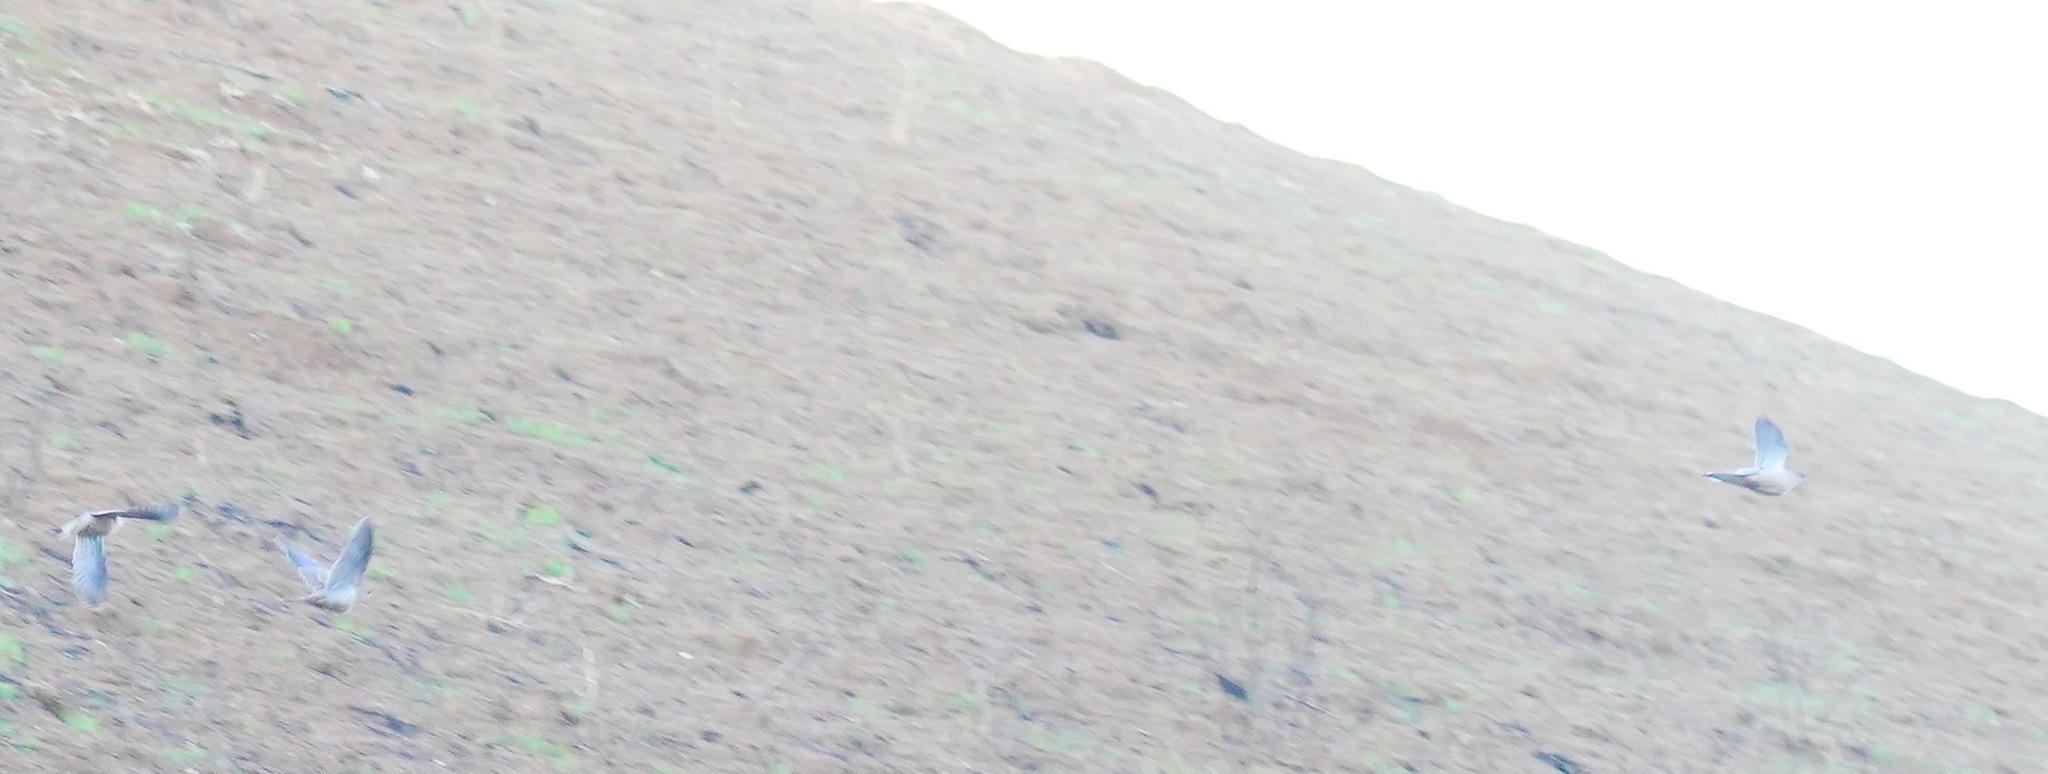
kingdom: Animalia
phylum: Chordata
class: Aves
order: Columbiformes
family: Columbidae
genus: Zenaida
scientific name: Zenaida macroura
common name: Mourning dove
